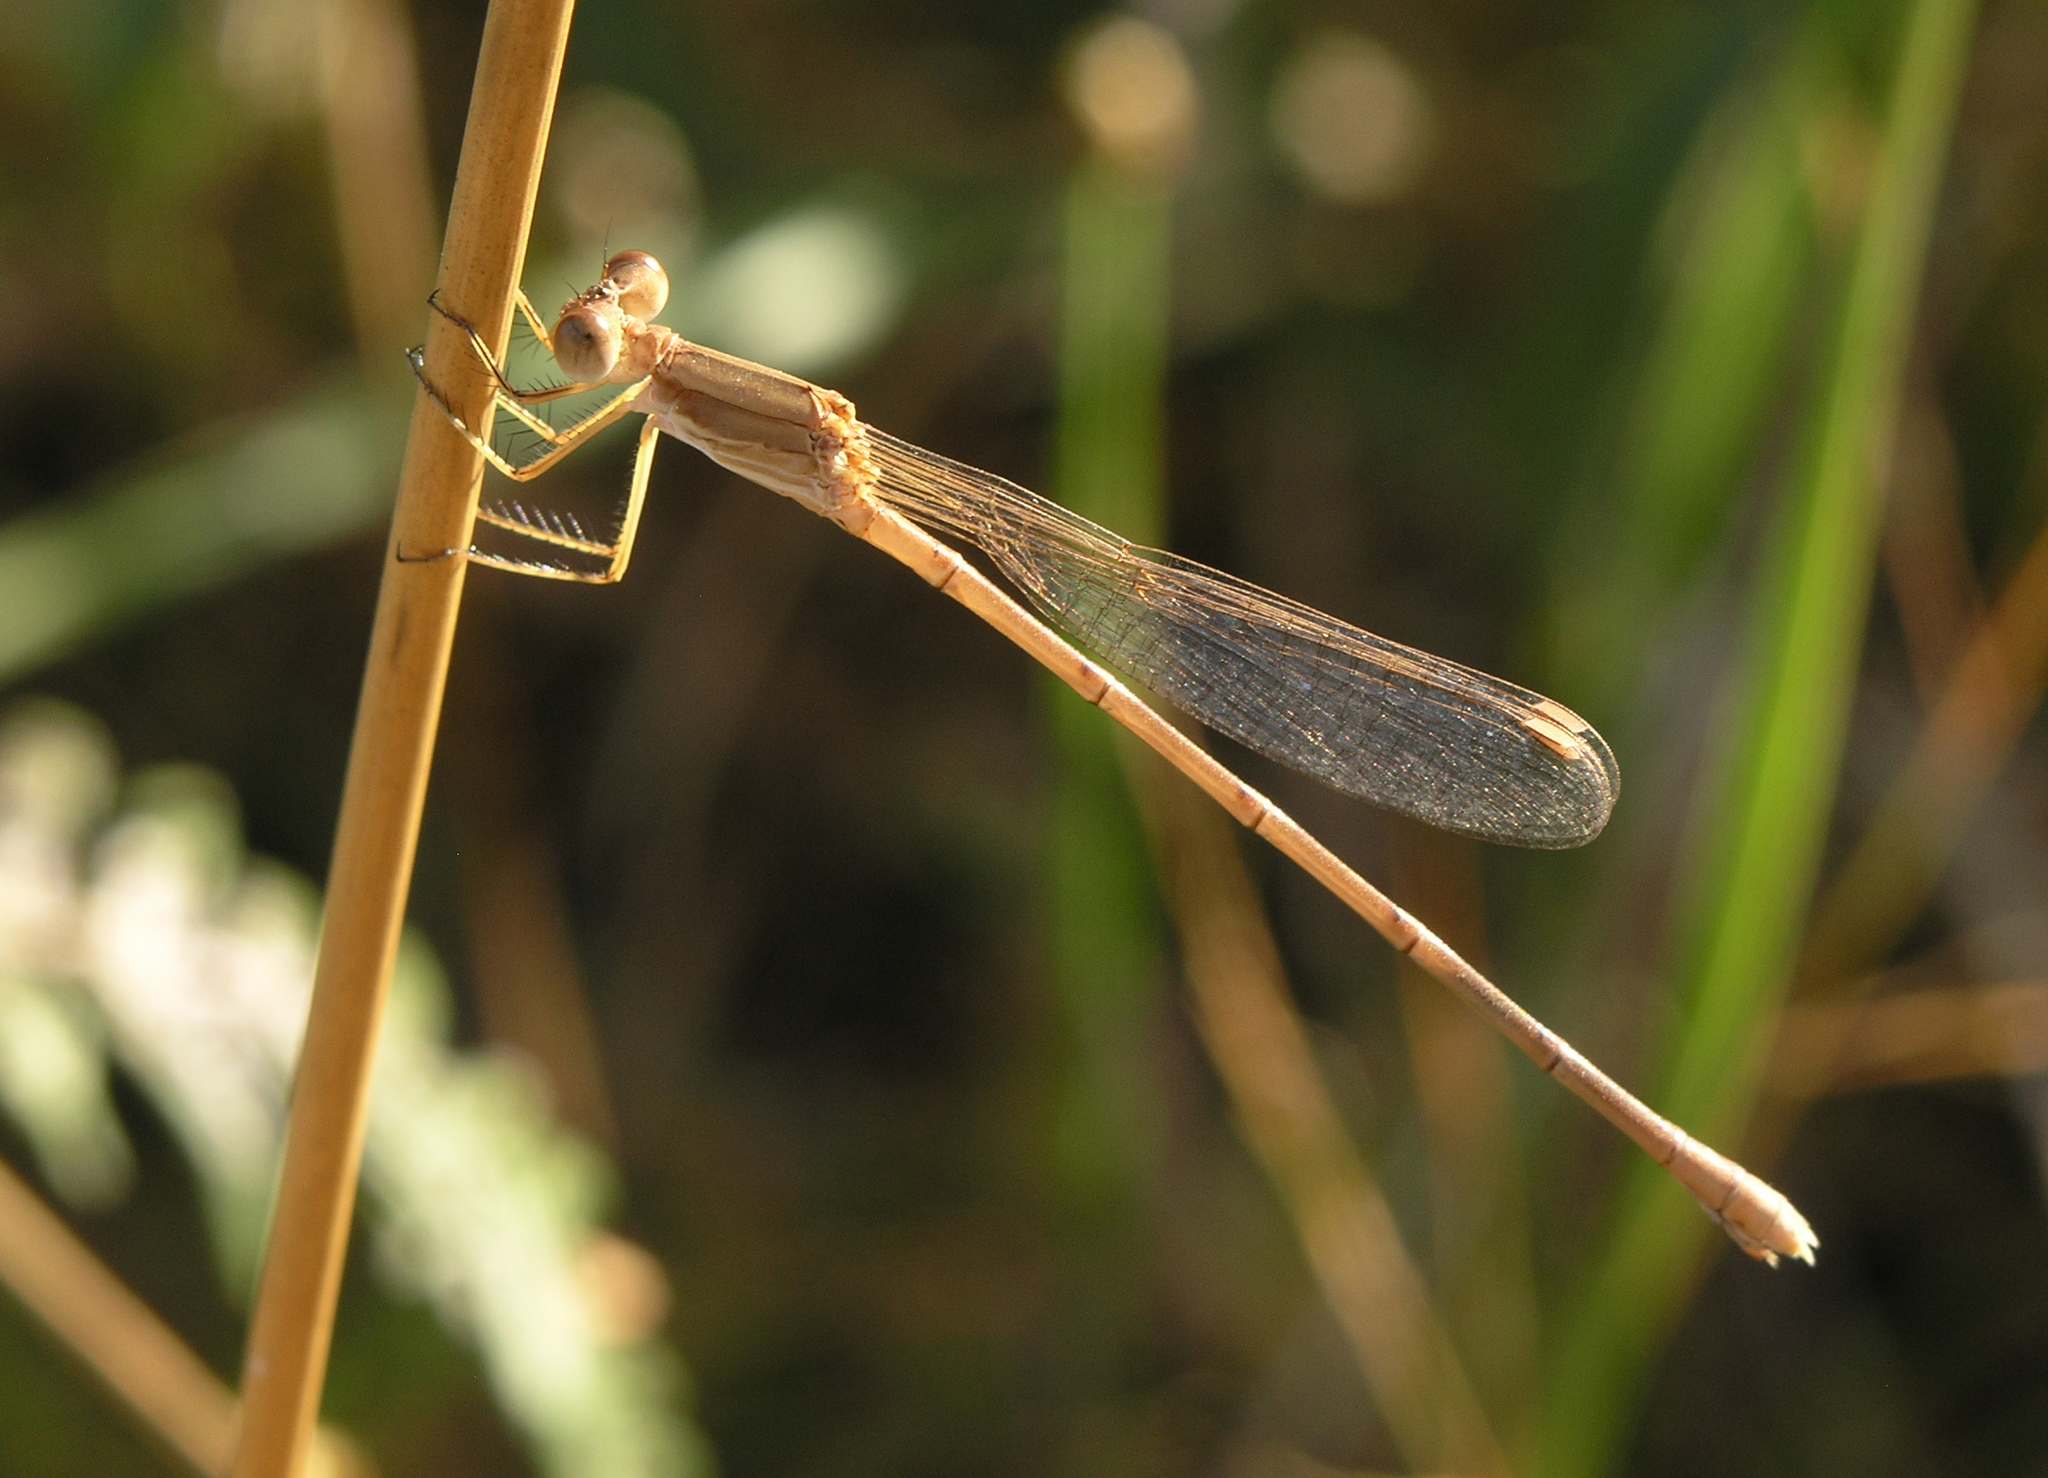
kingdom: Animalia
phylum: Arthropoda
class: Insecta
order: Odonata
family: Lestidae
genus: Lestes
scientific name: Lestes concinnus
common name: Dusky spreadwing
